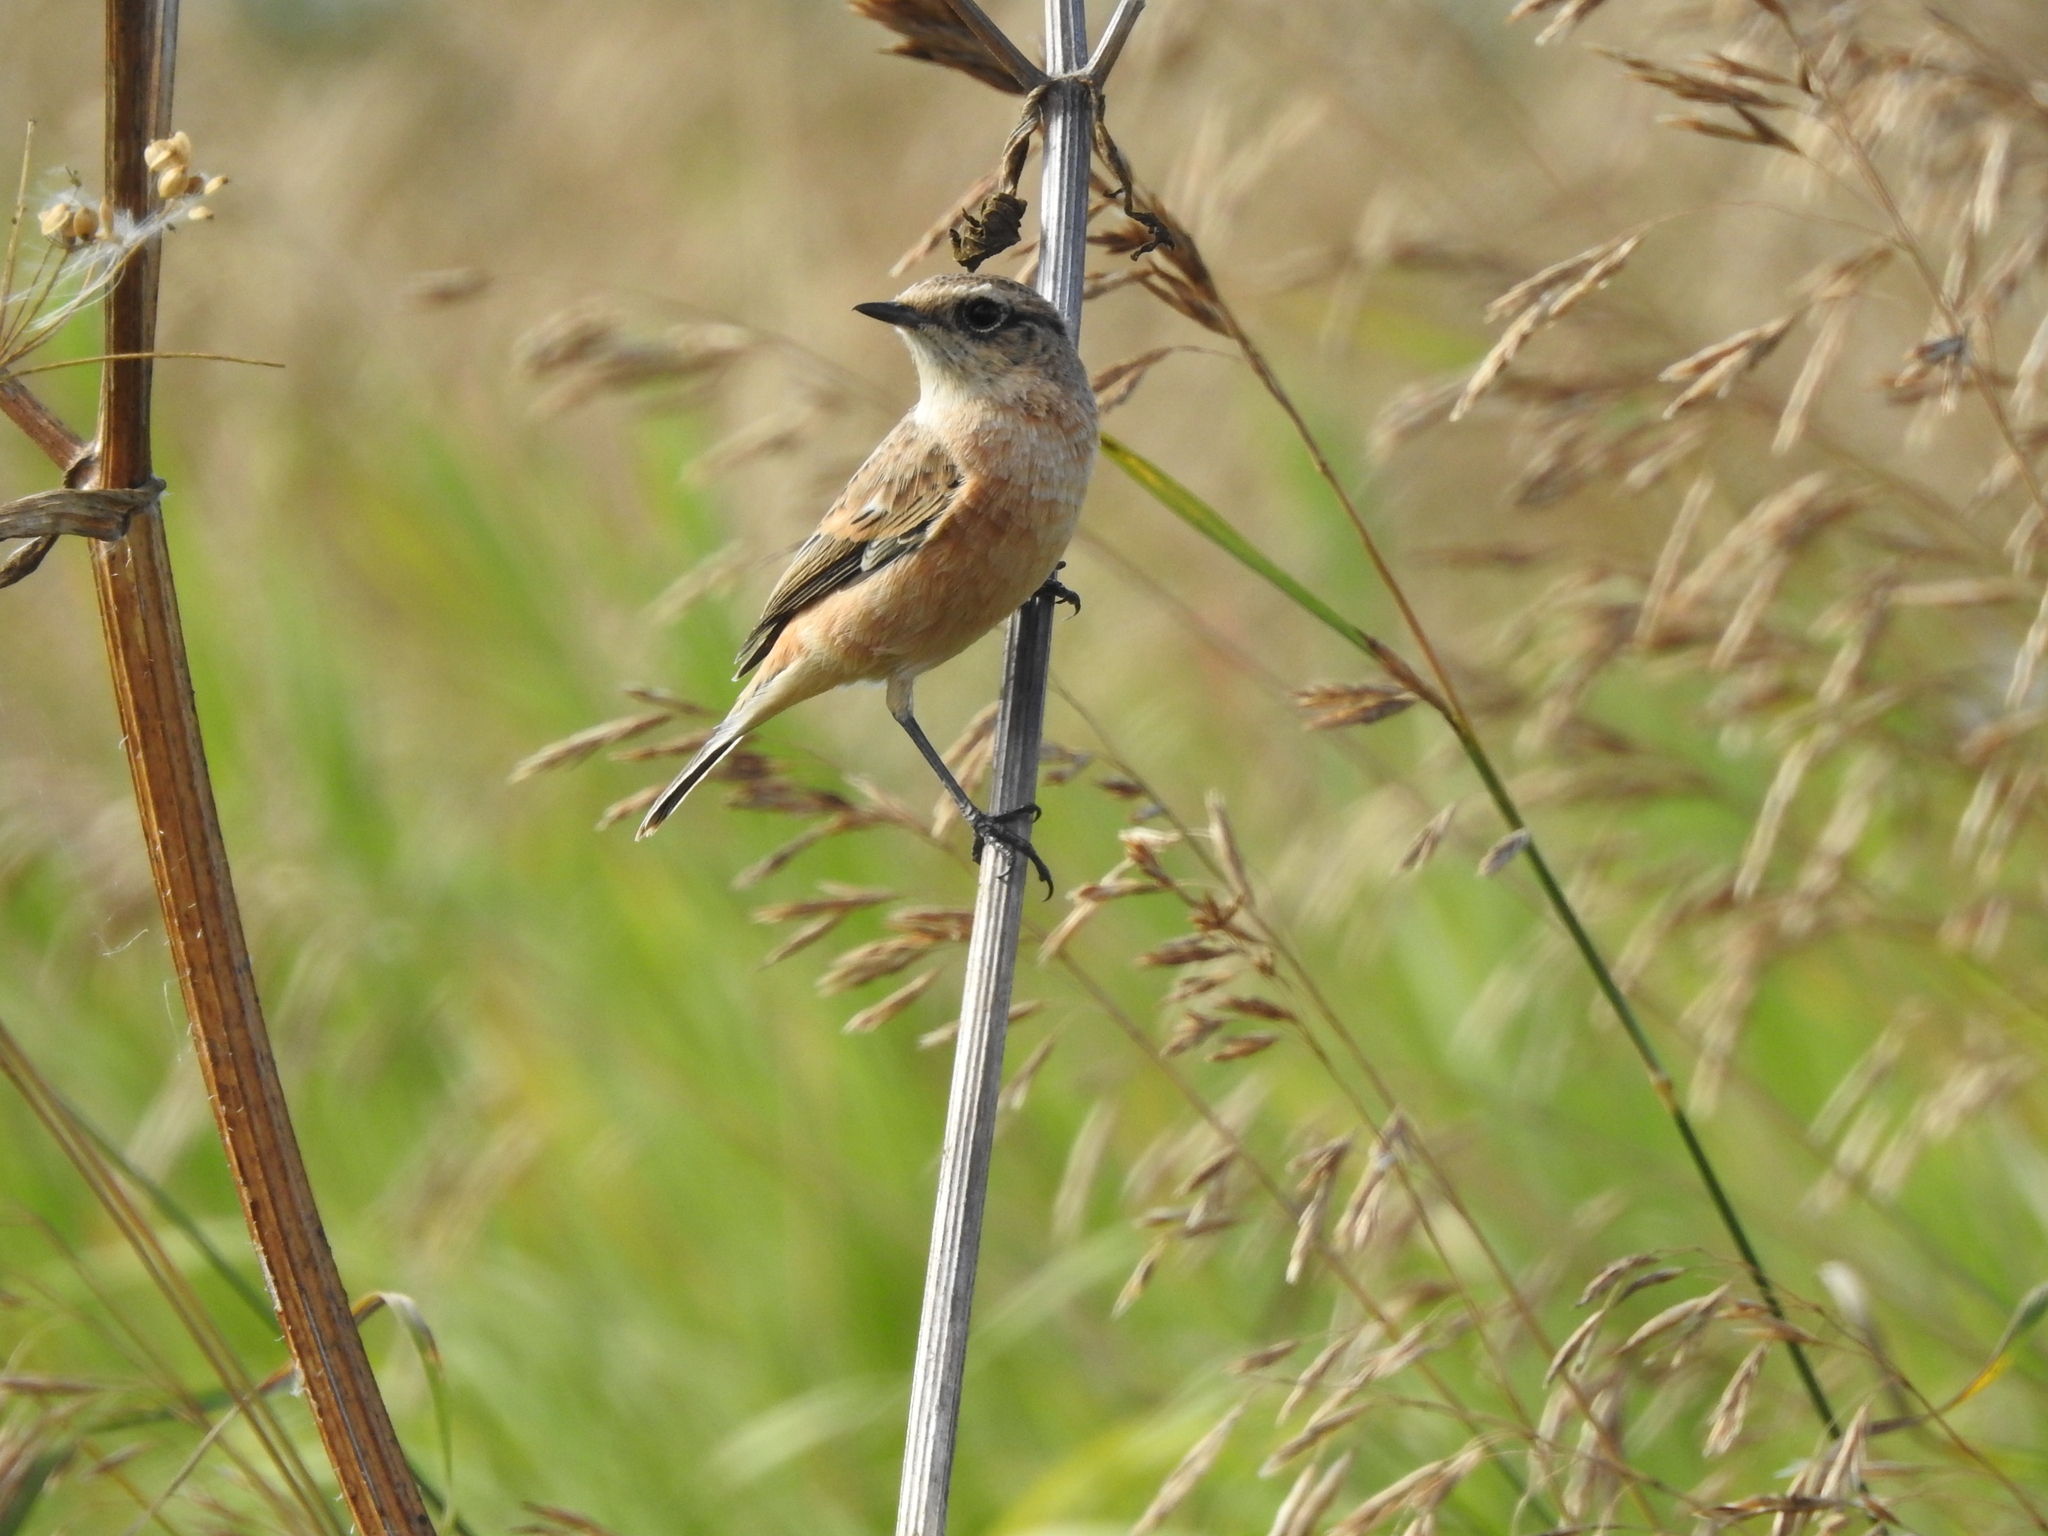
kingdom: Animalia
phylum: Chordata
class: Aves
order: Passeriformes
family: Muscicapidae
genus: Saxicola
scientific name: Saxicola maurus
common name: Siberian stonechat
